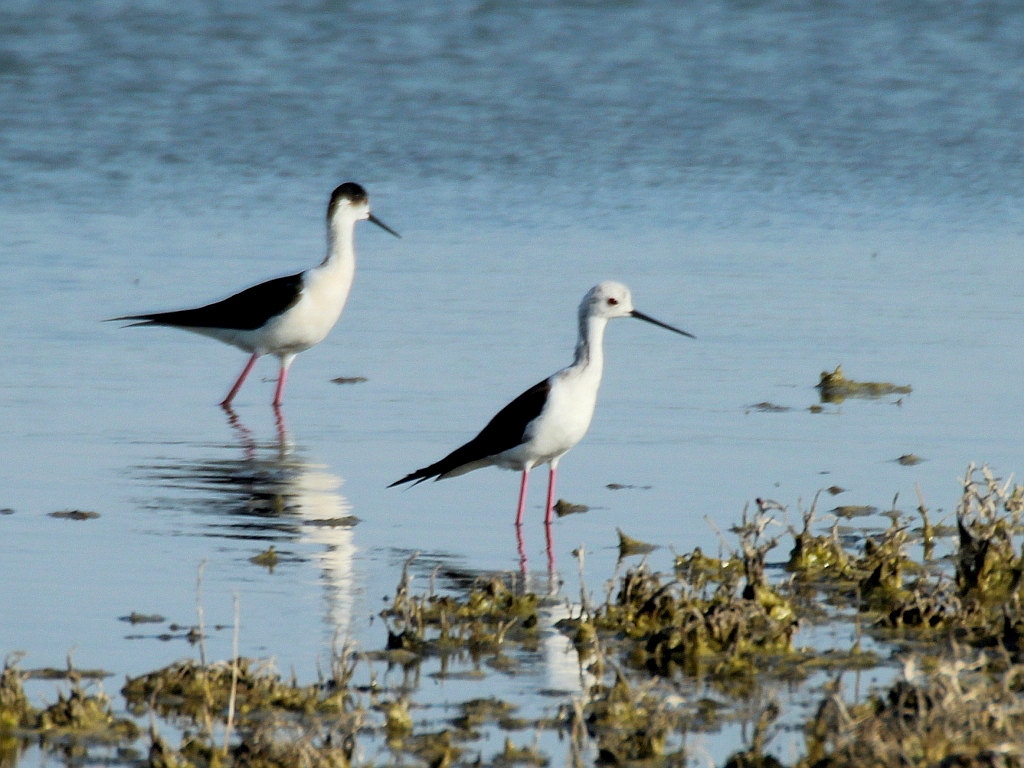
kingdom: Animalia
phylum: Chordata
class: Aves
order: Charadriiformes
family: Recurvirostridae
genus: Himantopus
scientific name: Himantopus himantopus
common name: Black-winged stilt
